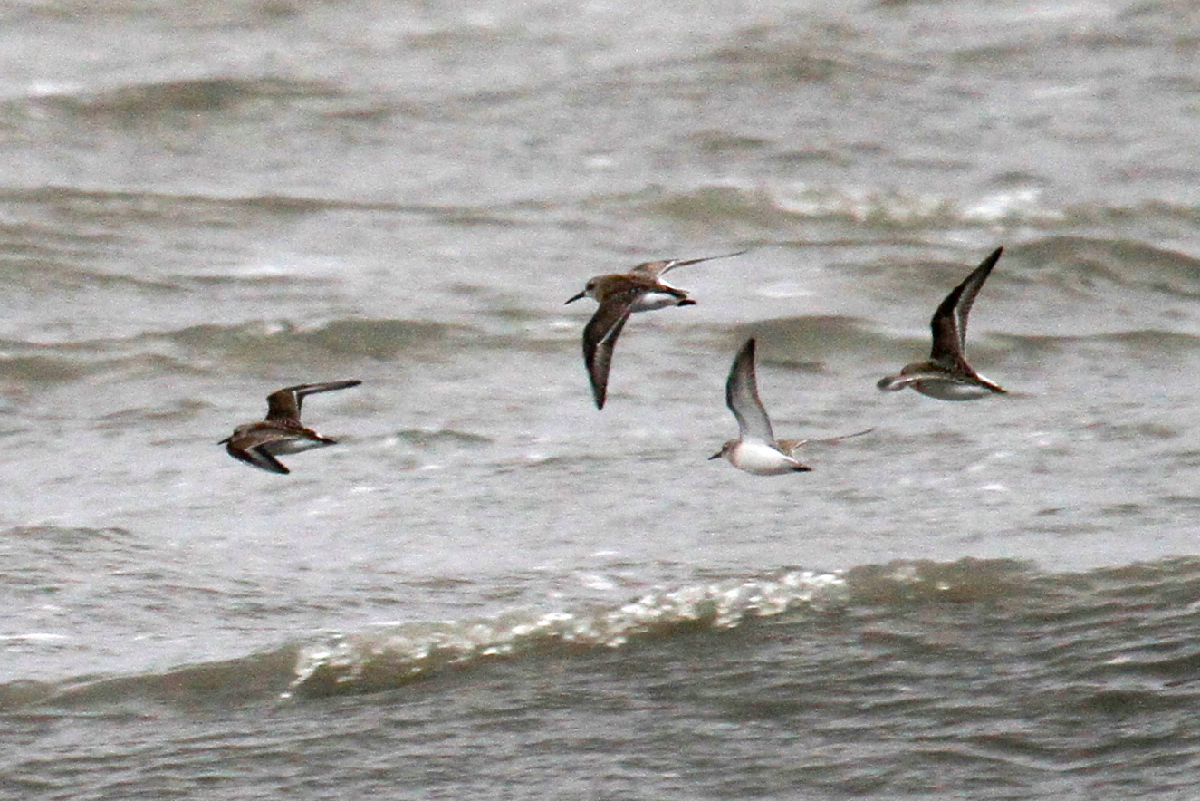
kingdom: Animalia
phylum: Chordata
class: Aves
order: Charadriiformes
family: Scolopacidae
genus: Calidris
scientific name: Calidris minutilla
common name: Least sandpiper
